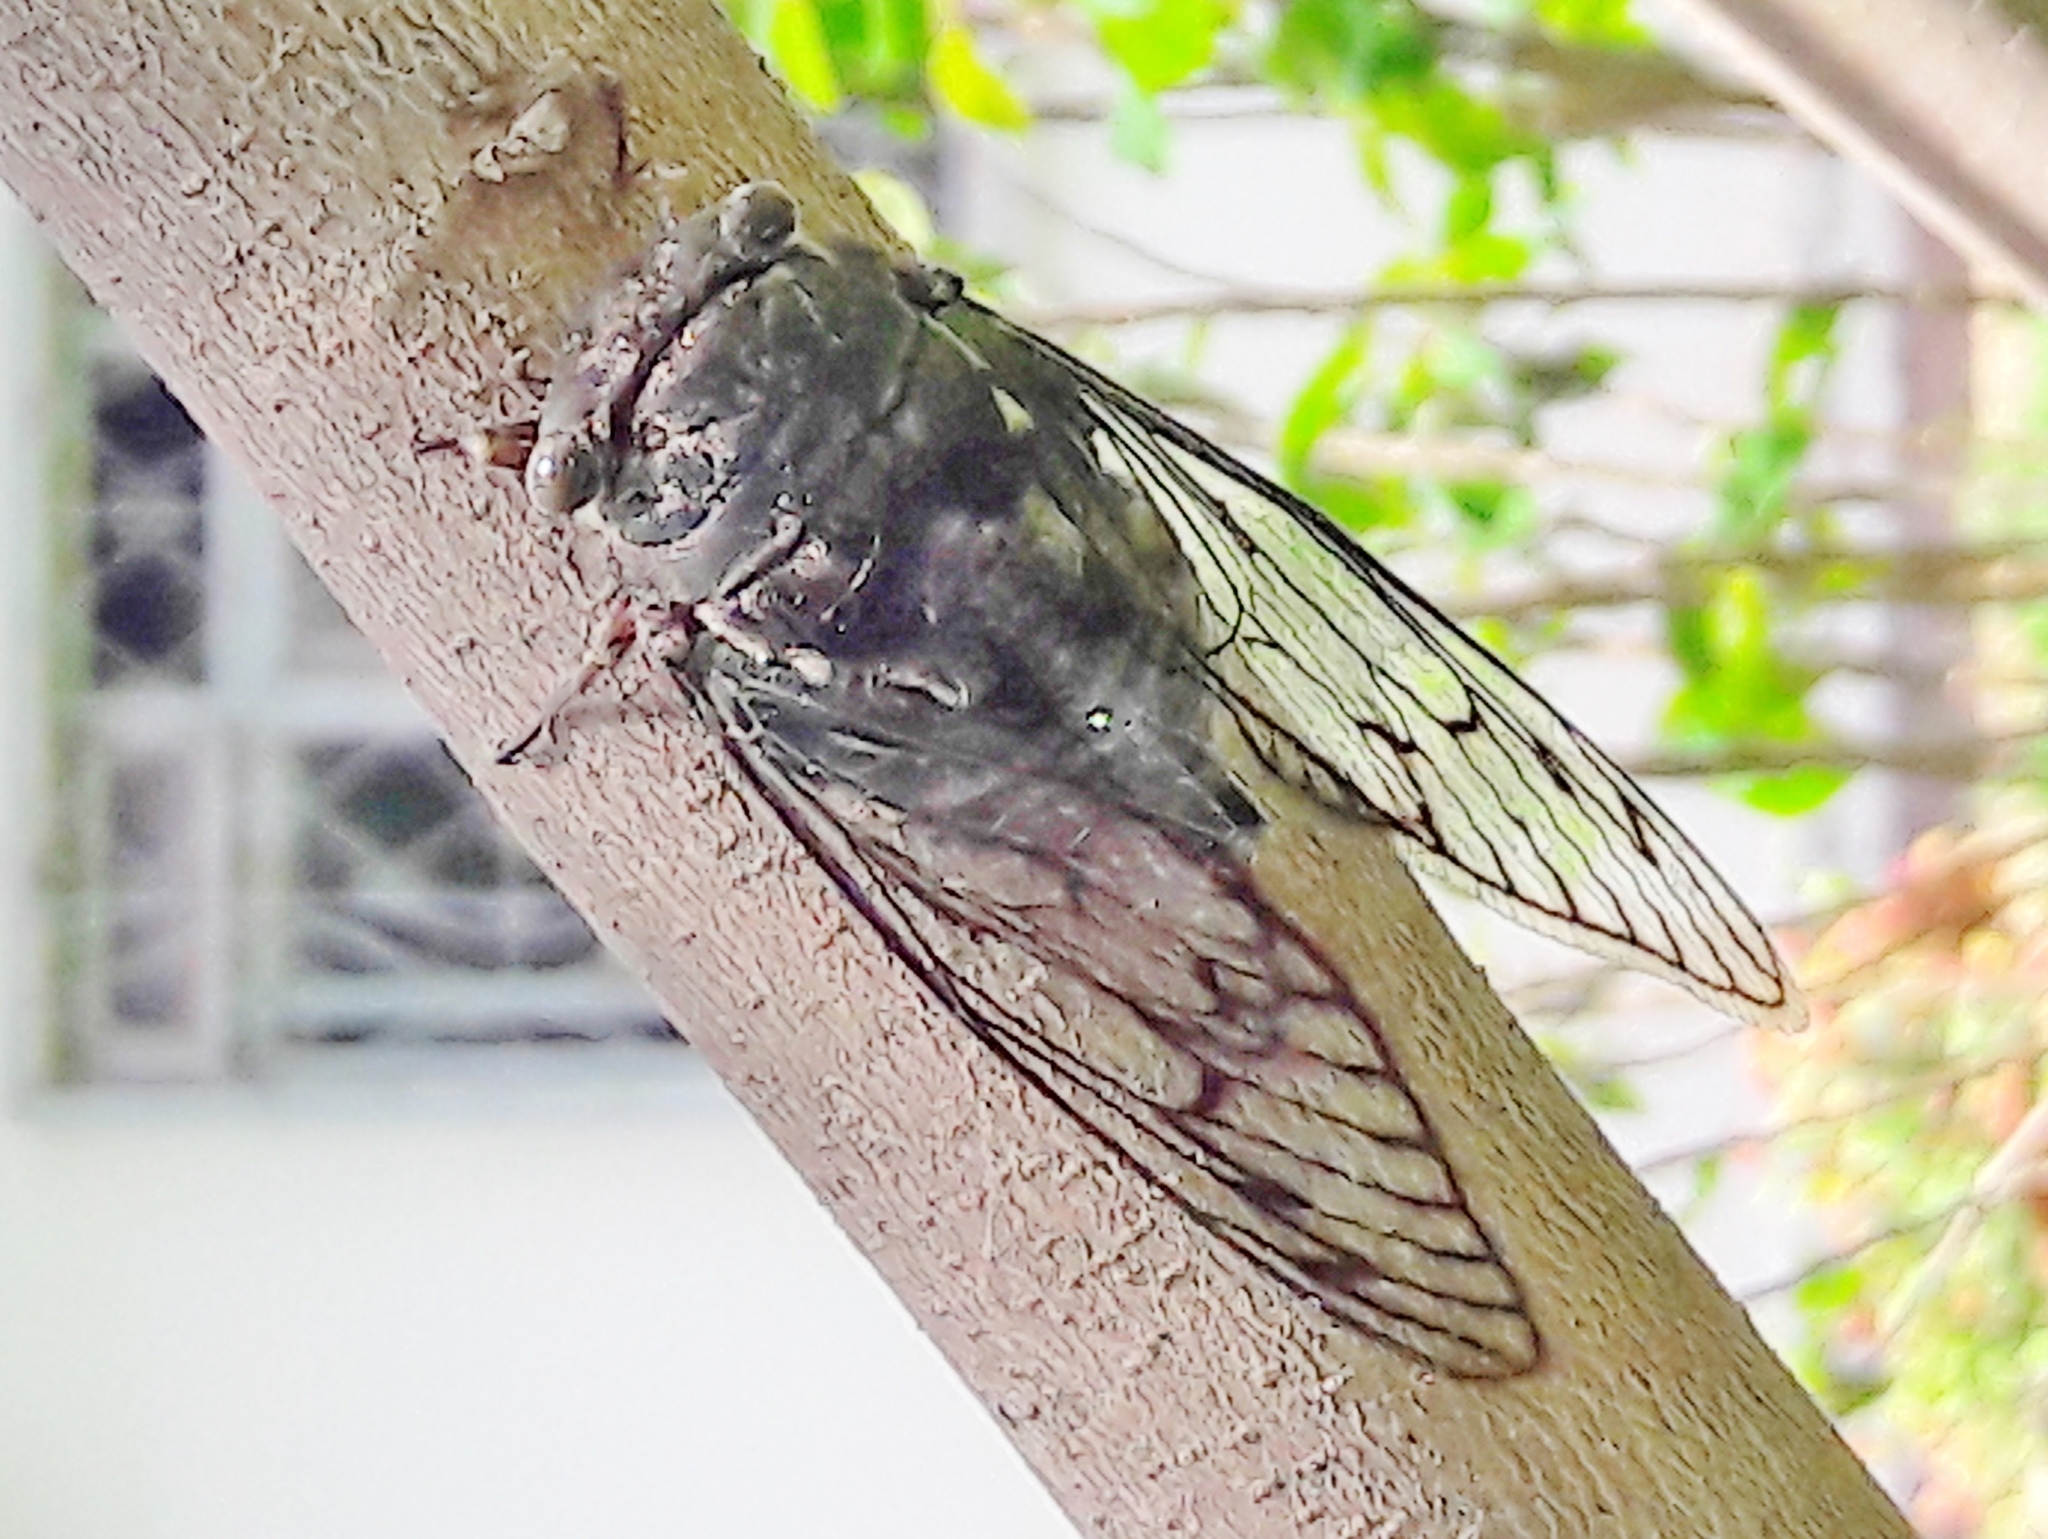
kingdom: Animalia
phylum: Arthropoda
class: Insecta
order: Hemiptera
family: Cicadidae
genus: Fidicina
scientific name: Fidicina toulgoeti
